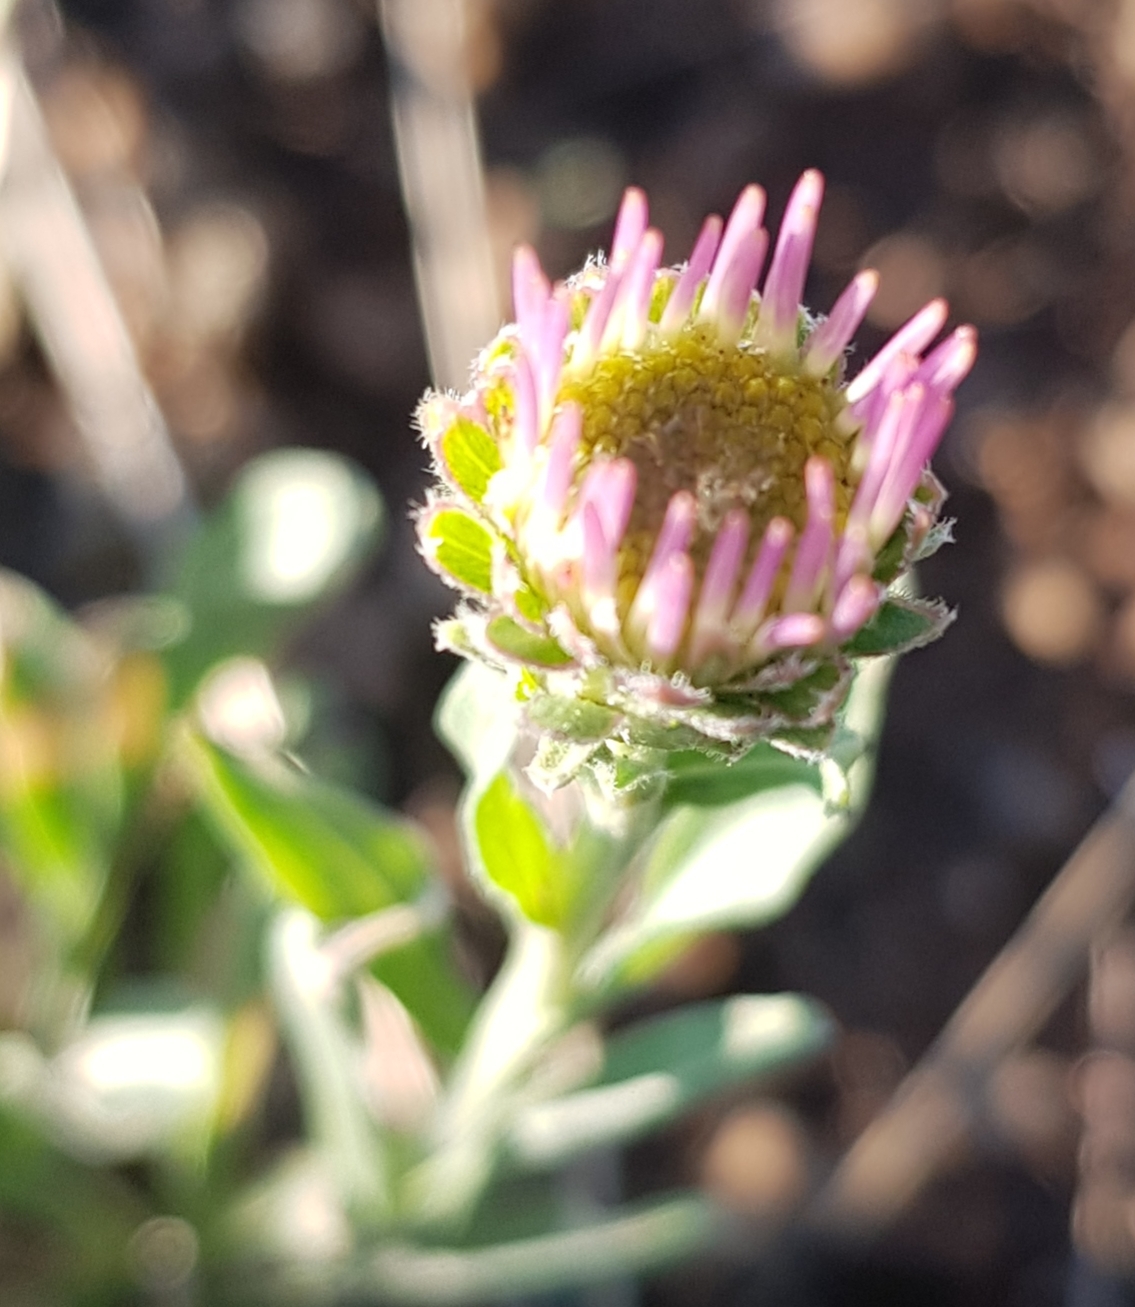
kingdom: Plantae
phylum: Tracheophyta
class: Magnoliopsida
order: Asterales
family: Asteraceae
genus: Erigeron
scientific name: Erigeron acris
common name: Blue fleabane
